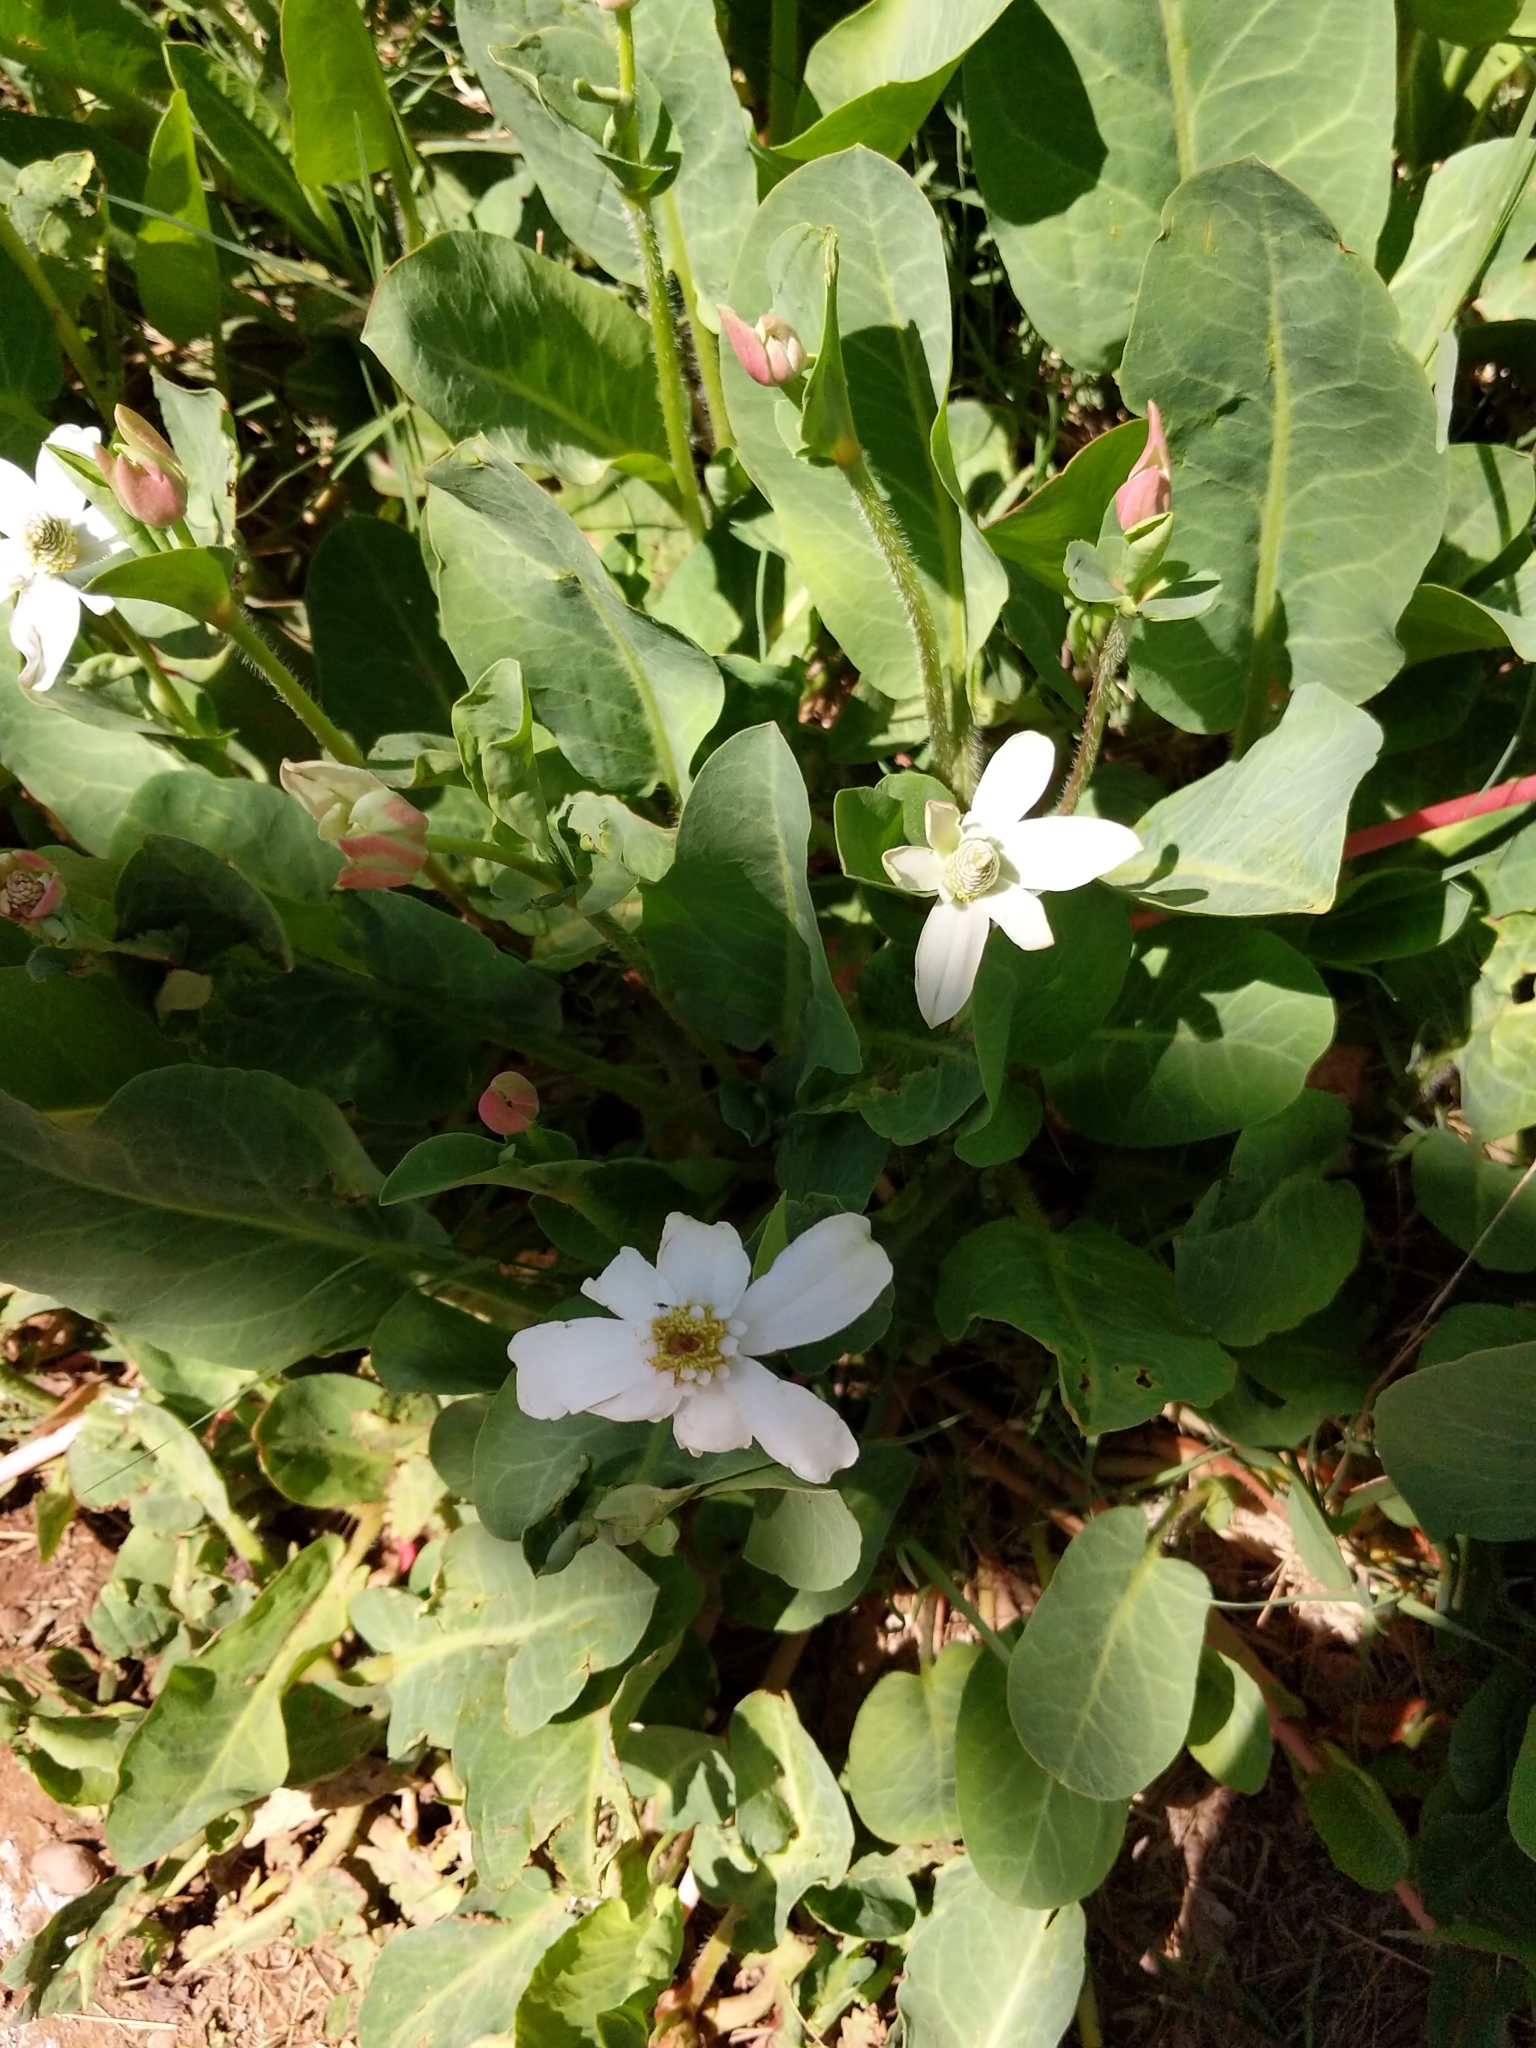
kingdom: Plantae
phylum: Tracheophyta
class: Magnoliopsida
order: Piperales
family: Saururaceae
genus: Anemopsis
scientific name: Anemopsis californica
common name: Apache-beads
